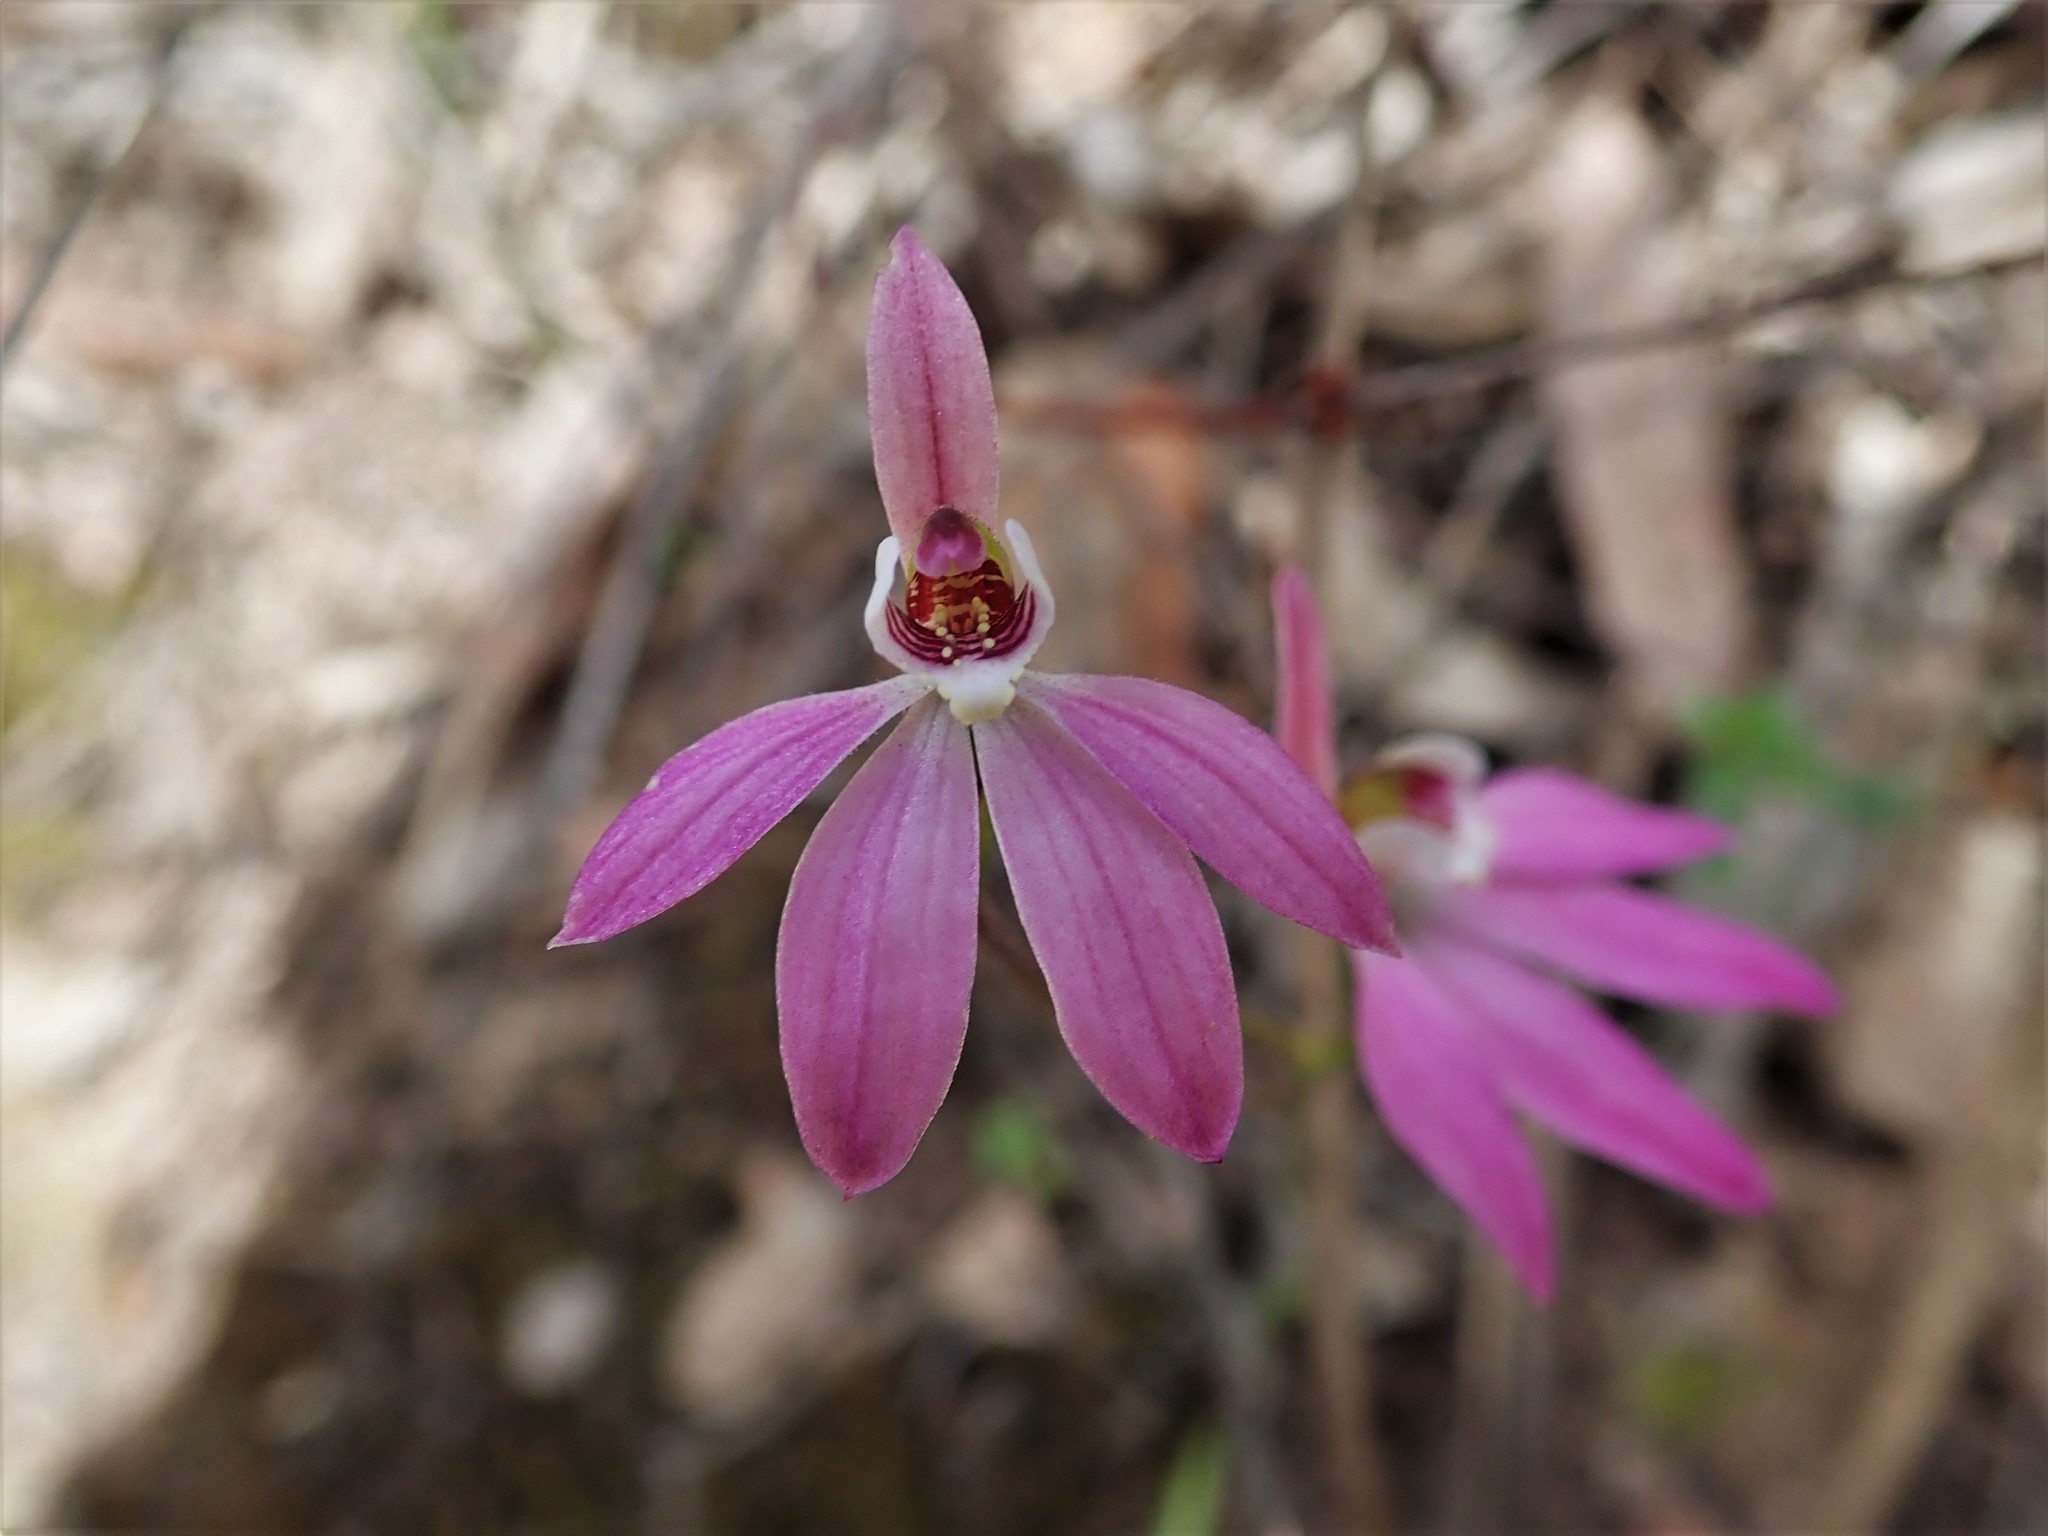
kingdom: Plantae
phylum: Tracheophyta
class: Liliopsida
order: Asparagales
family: Orchidaceae
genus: Caladenia
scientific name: Caladenia carnea
